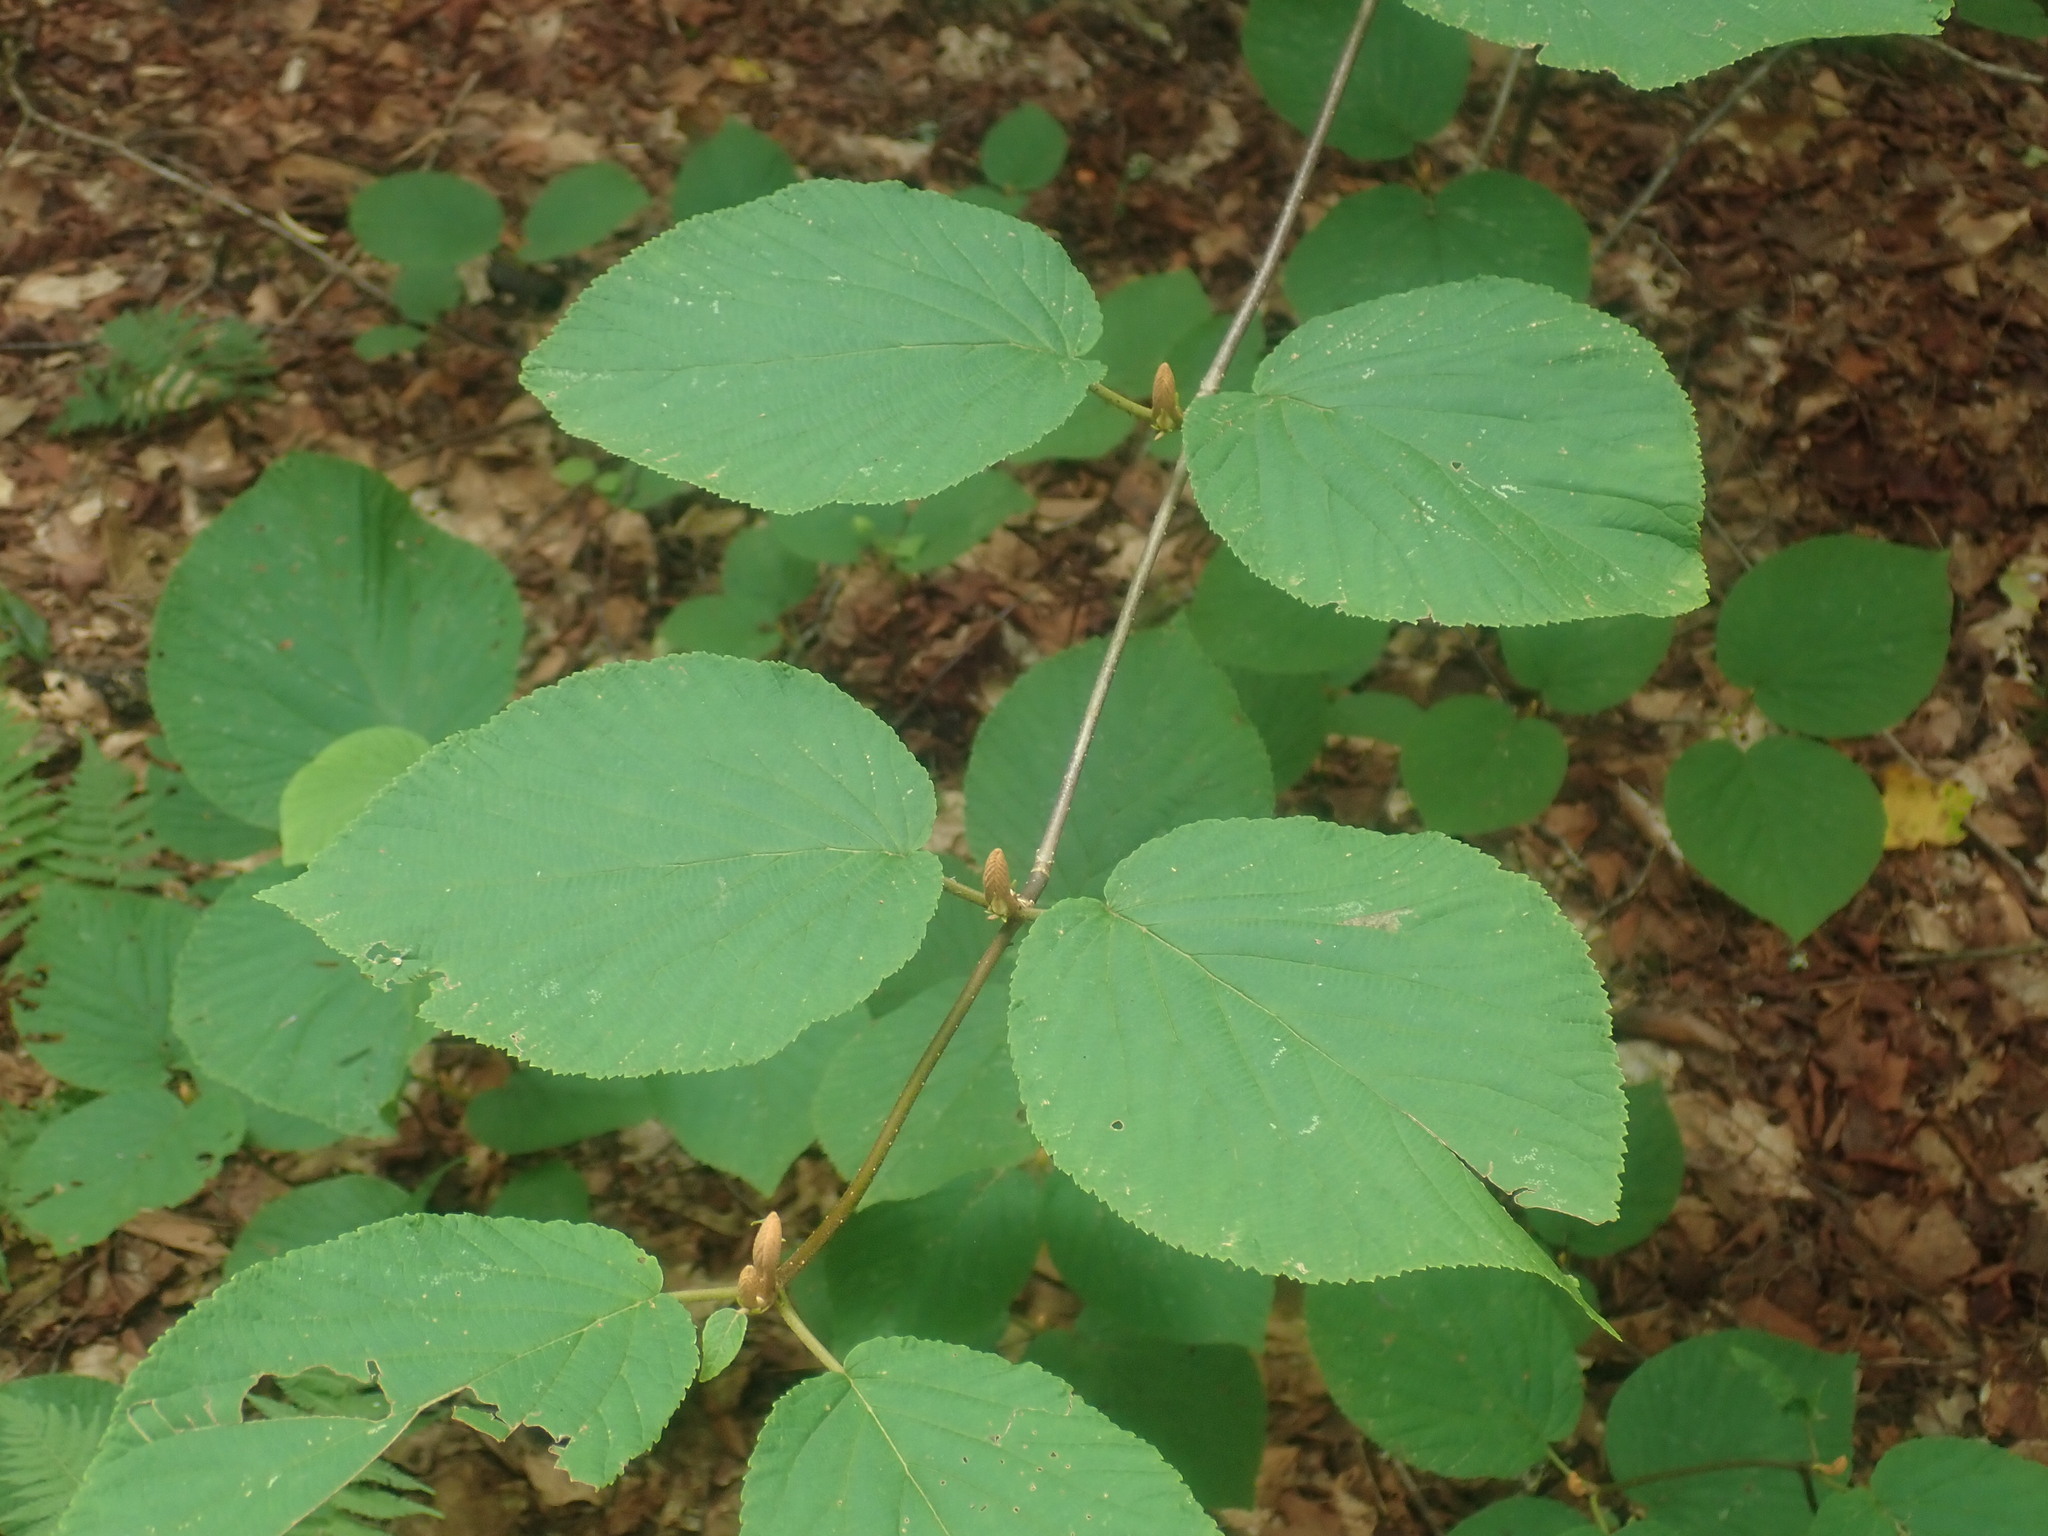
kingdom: Plantae
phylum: Tracheophyta
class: Magnoliopsida
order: Dipsacales
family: Viburnaceae
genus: Viburnum
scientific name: Viburnum lantanoides
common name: Hobblebush
